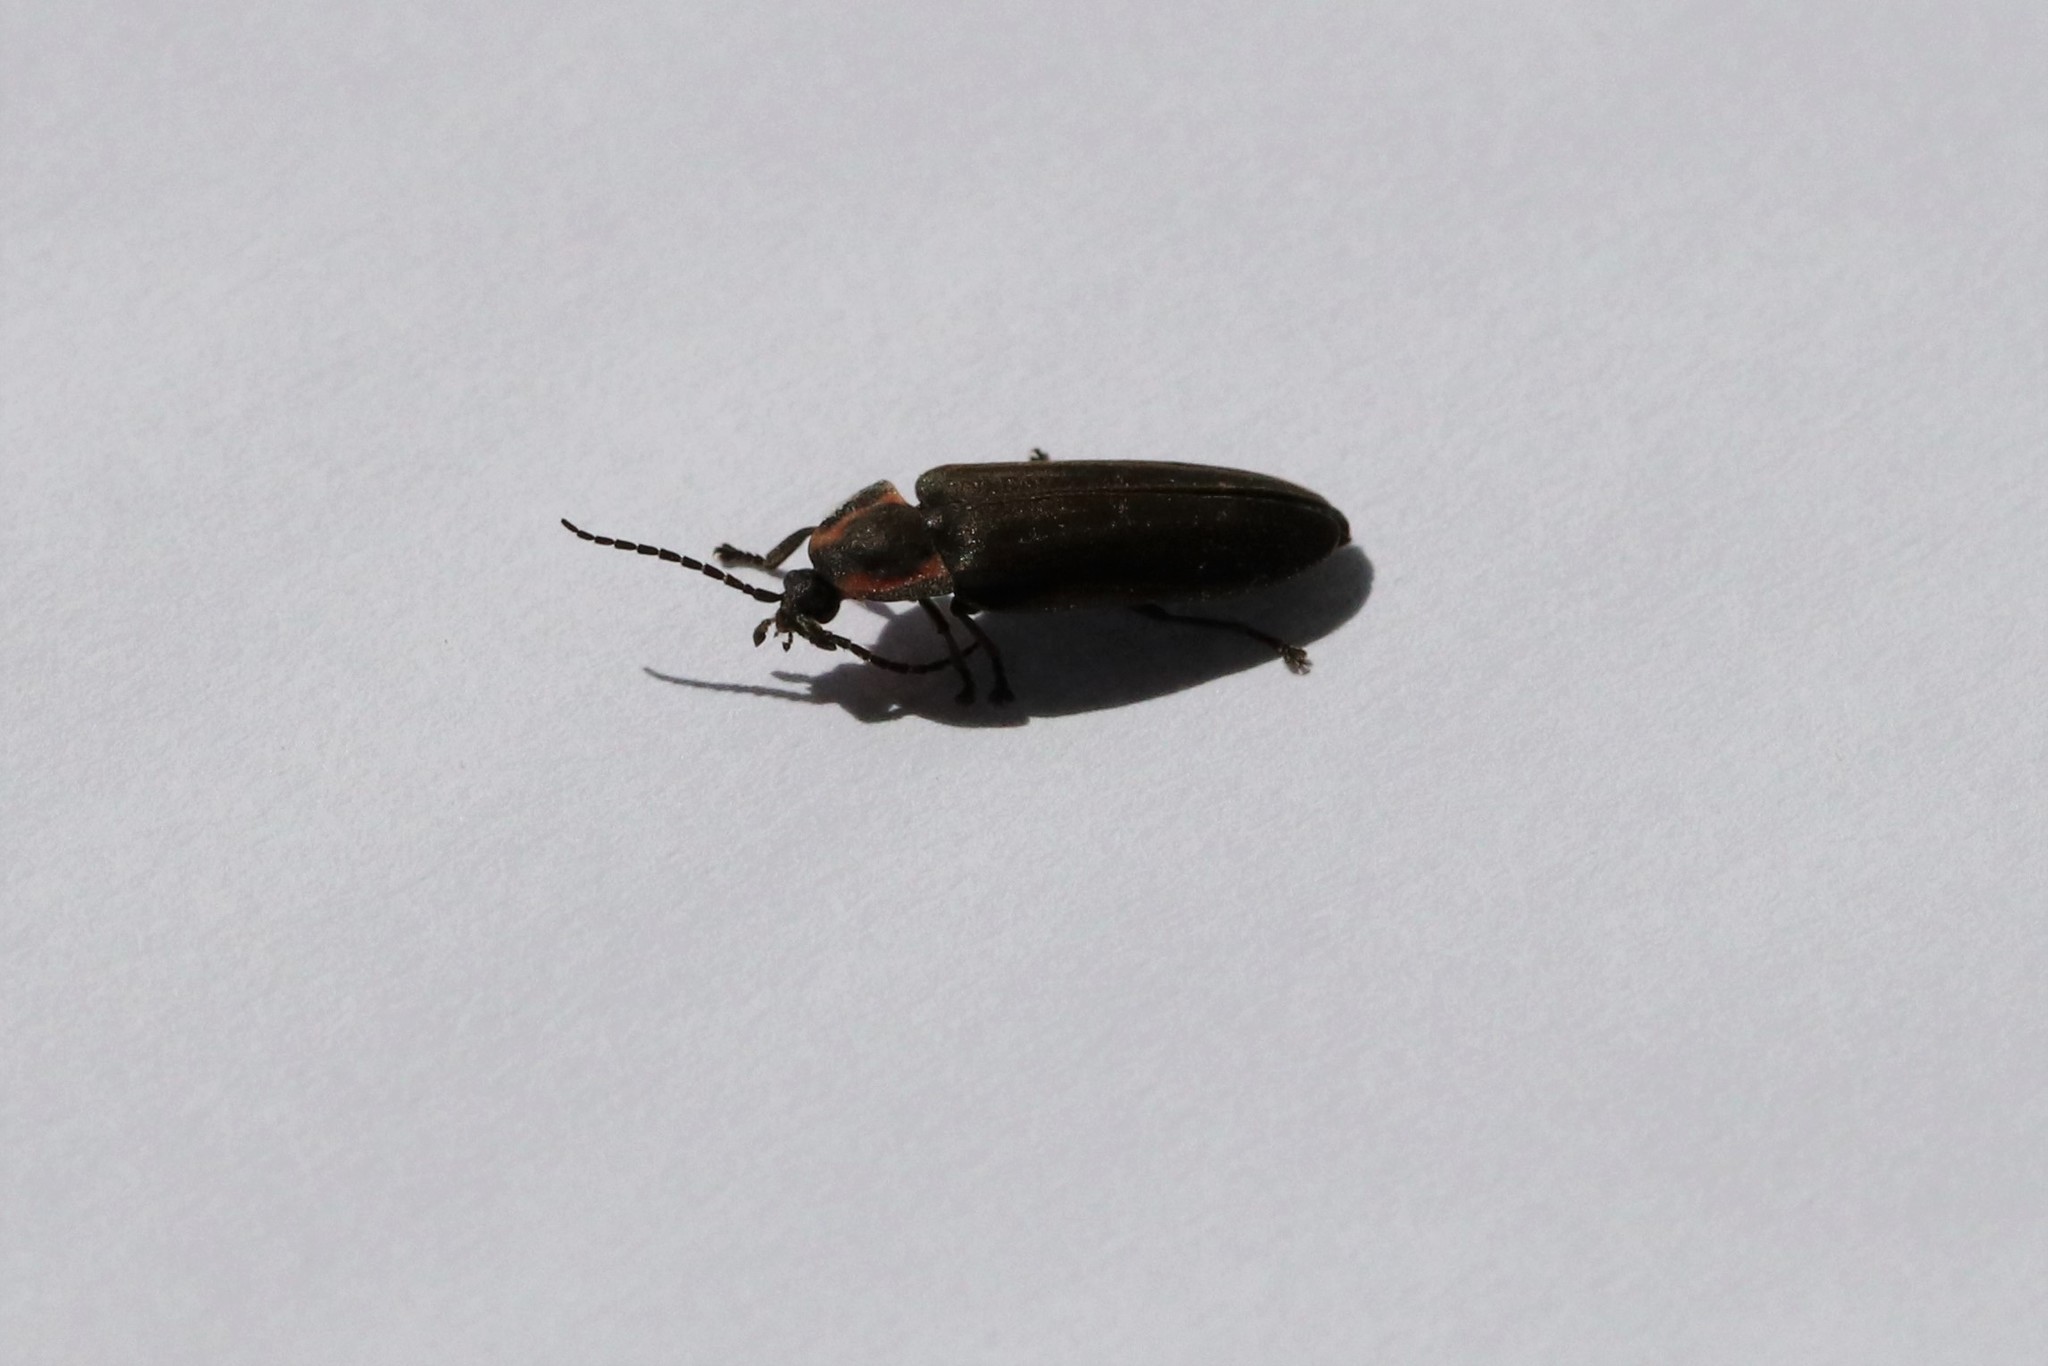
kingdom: Animalia
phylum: Arthropoda
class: Insecta
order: Coleoptera
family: Lampyridae
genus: Photinus
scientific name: Photinus corrusca
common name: Winter firefly
